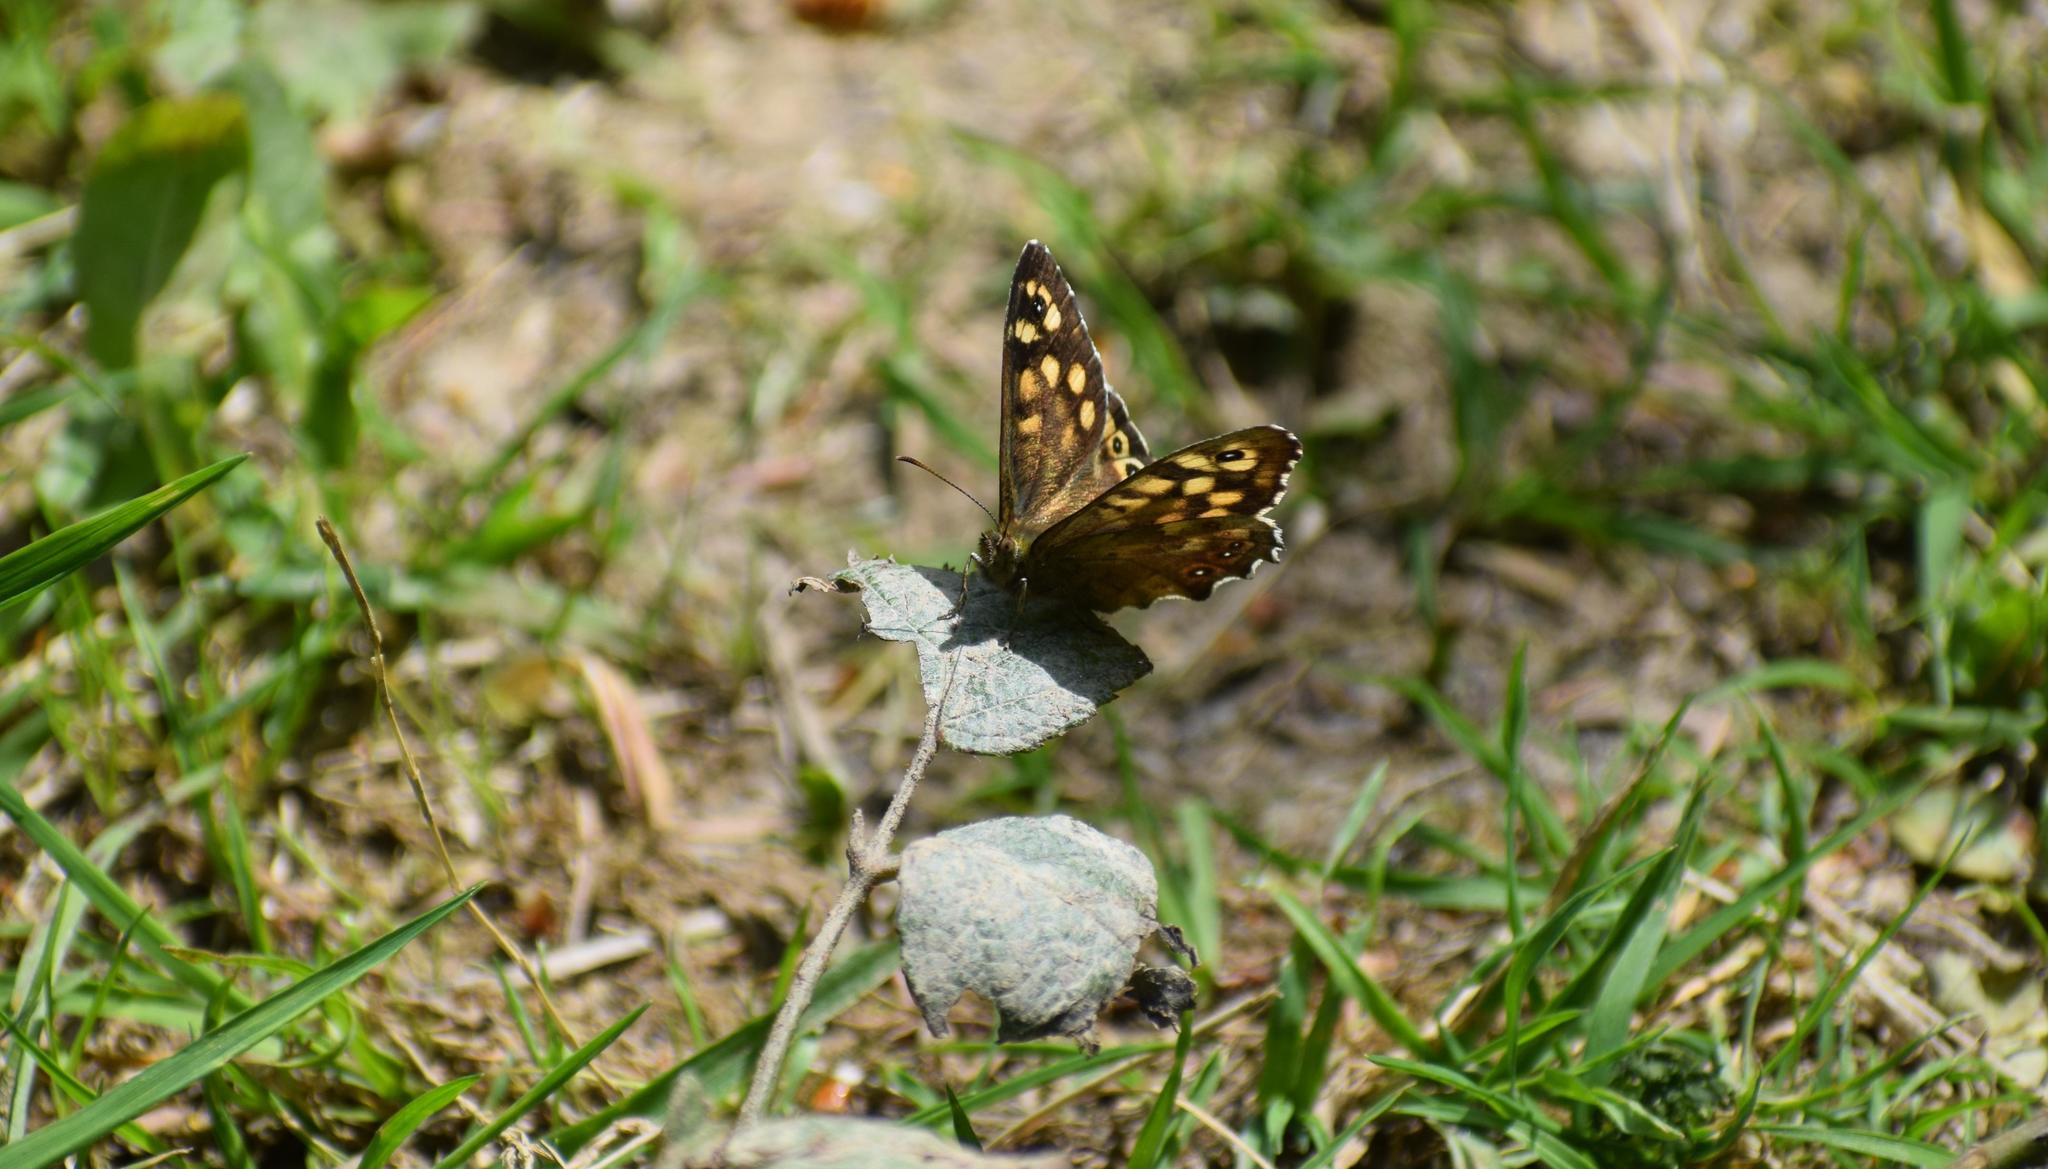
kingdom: Animalia
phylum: Arthropoda
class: Insecta
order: Lepidoptera
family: Nymphalidae
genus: Pararge
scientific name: Pararge aegeria
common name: Speckled wood
